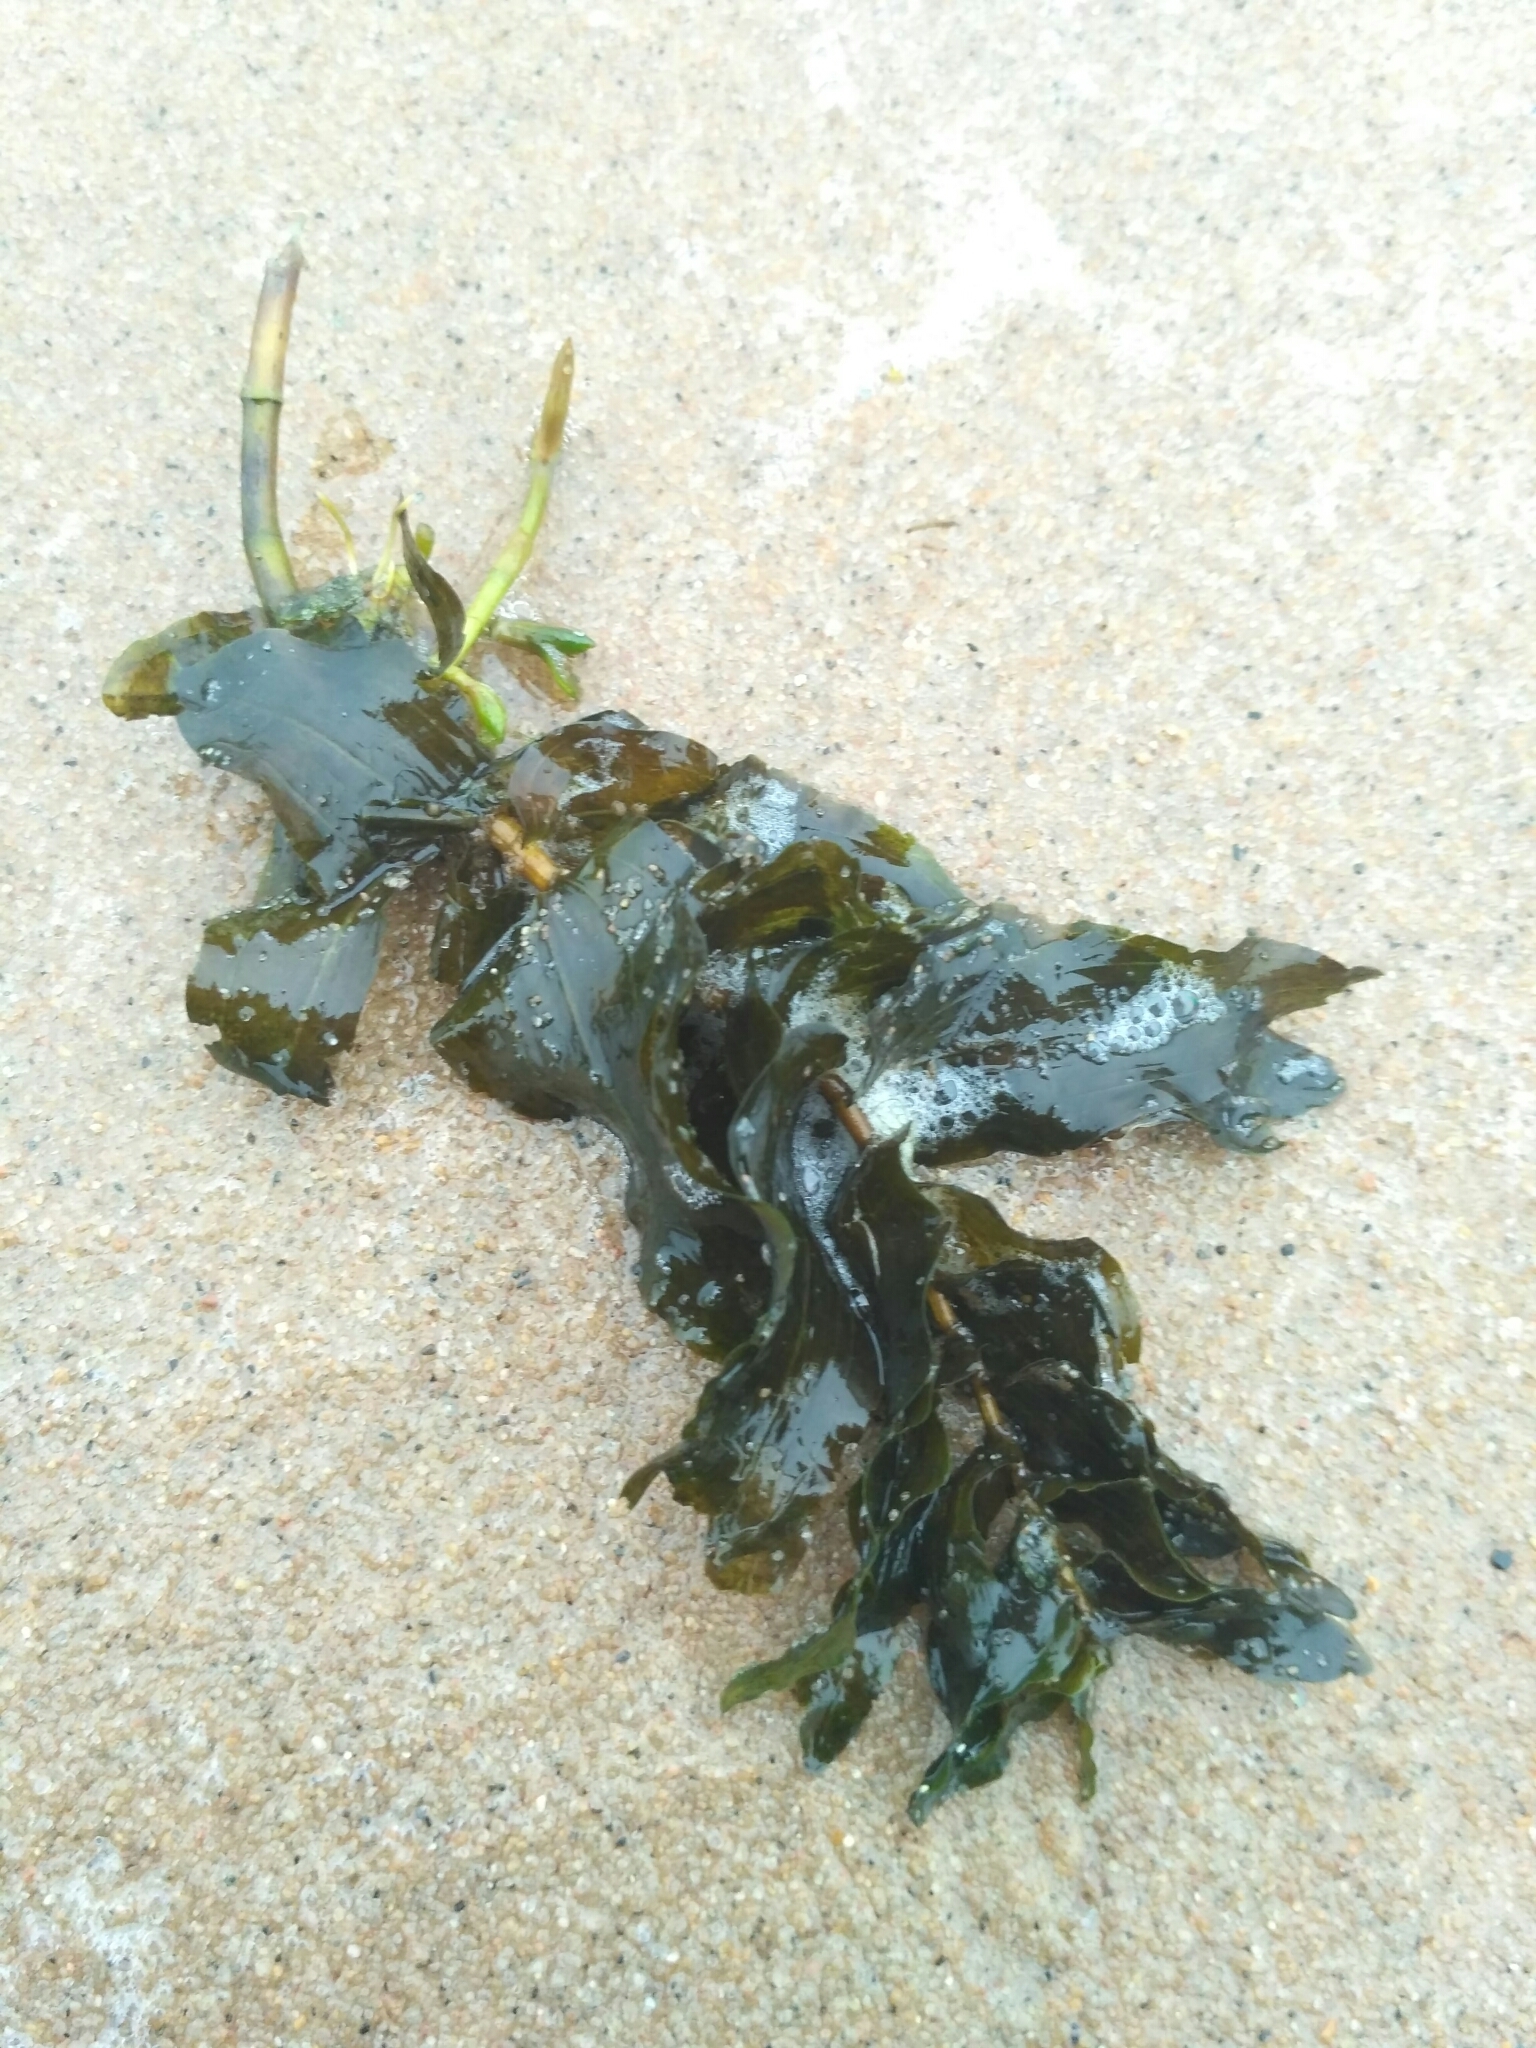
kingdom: Plantae
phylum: Tracheophyta
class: Liliopsida
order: Alismatales
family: Potamogetonaceae
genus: Potamogeton
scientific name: Potamogeton perfoliatus
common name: Perfoliate pondweed
